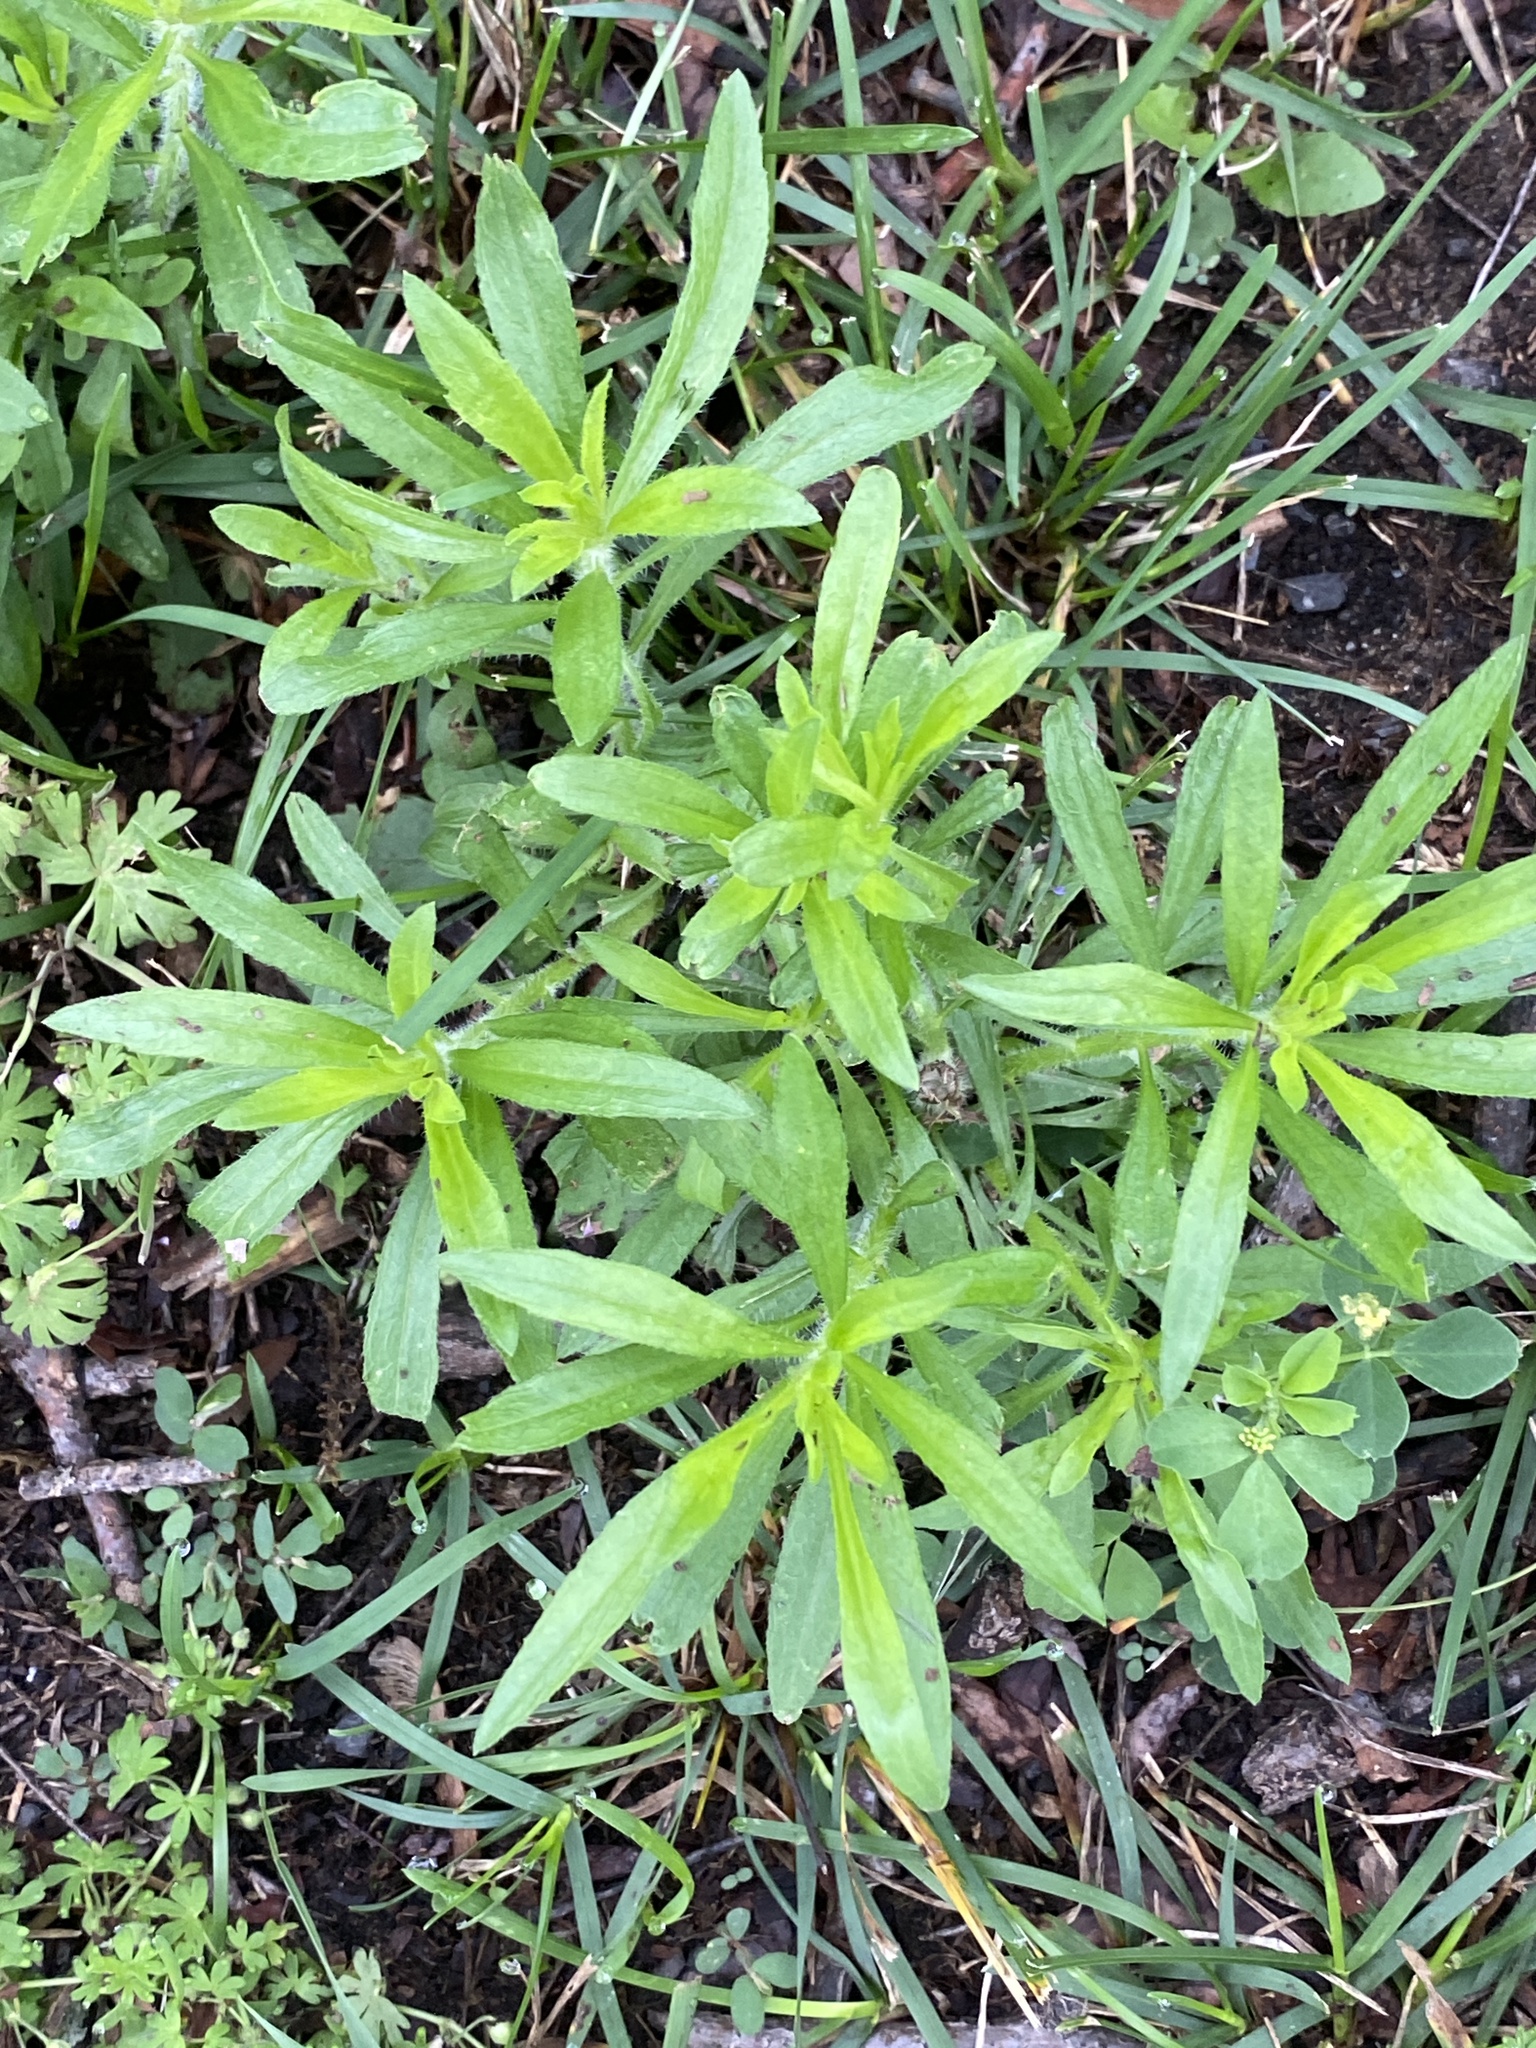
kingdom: Plantae
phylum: Tracheophyta
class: Magnoliopsida
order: Asterales
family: Asteraceae
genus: Erigeron
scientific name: Erigeron canadensis
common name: Canadian fleabane
